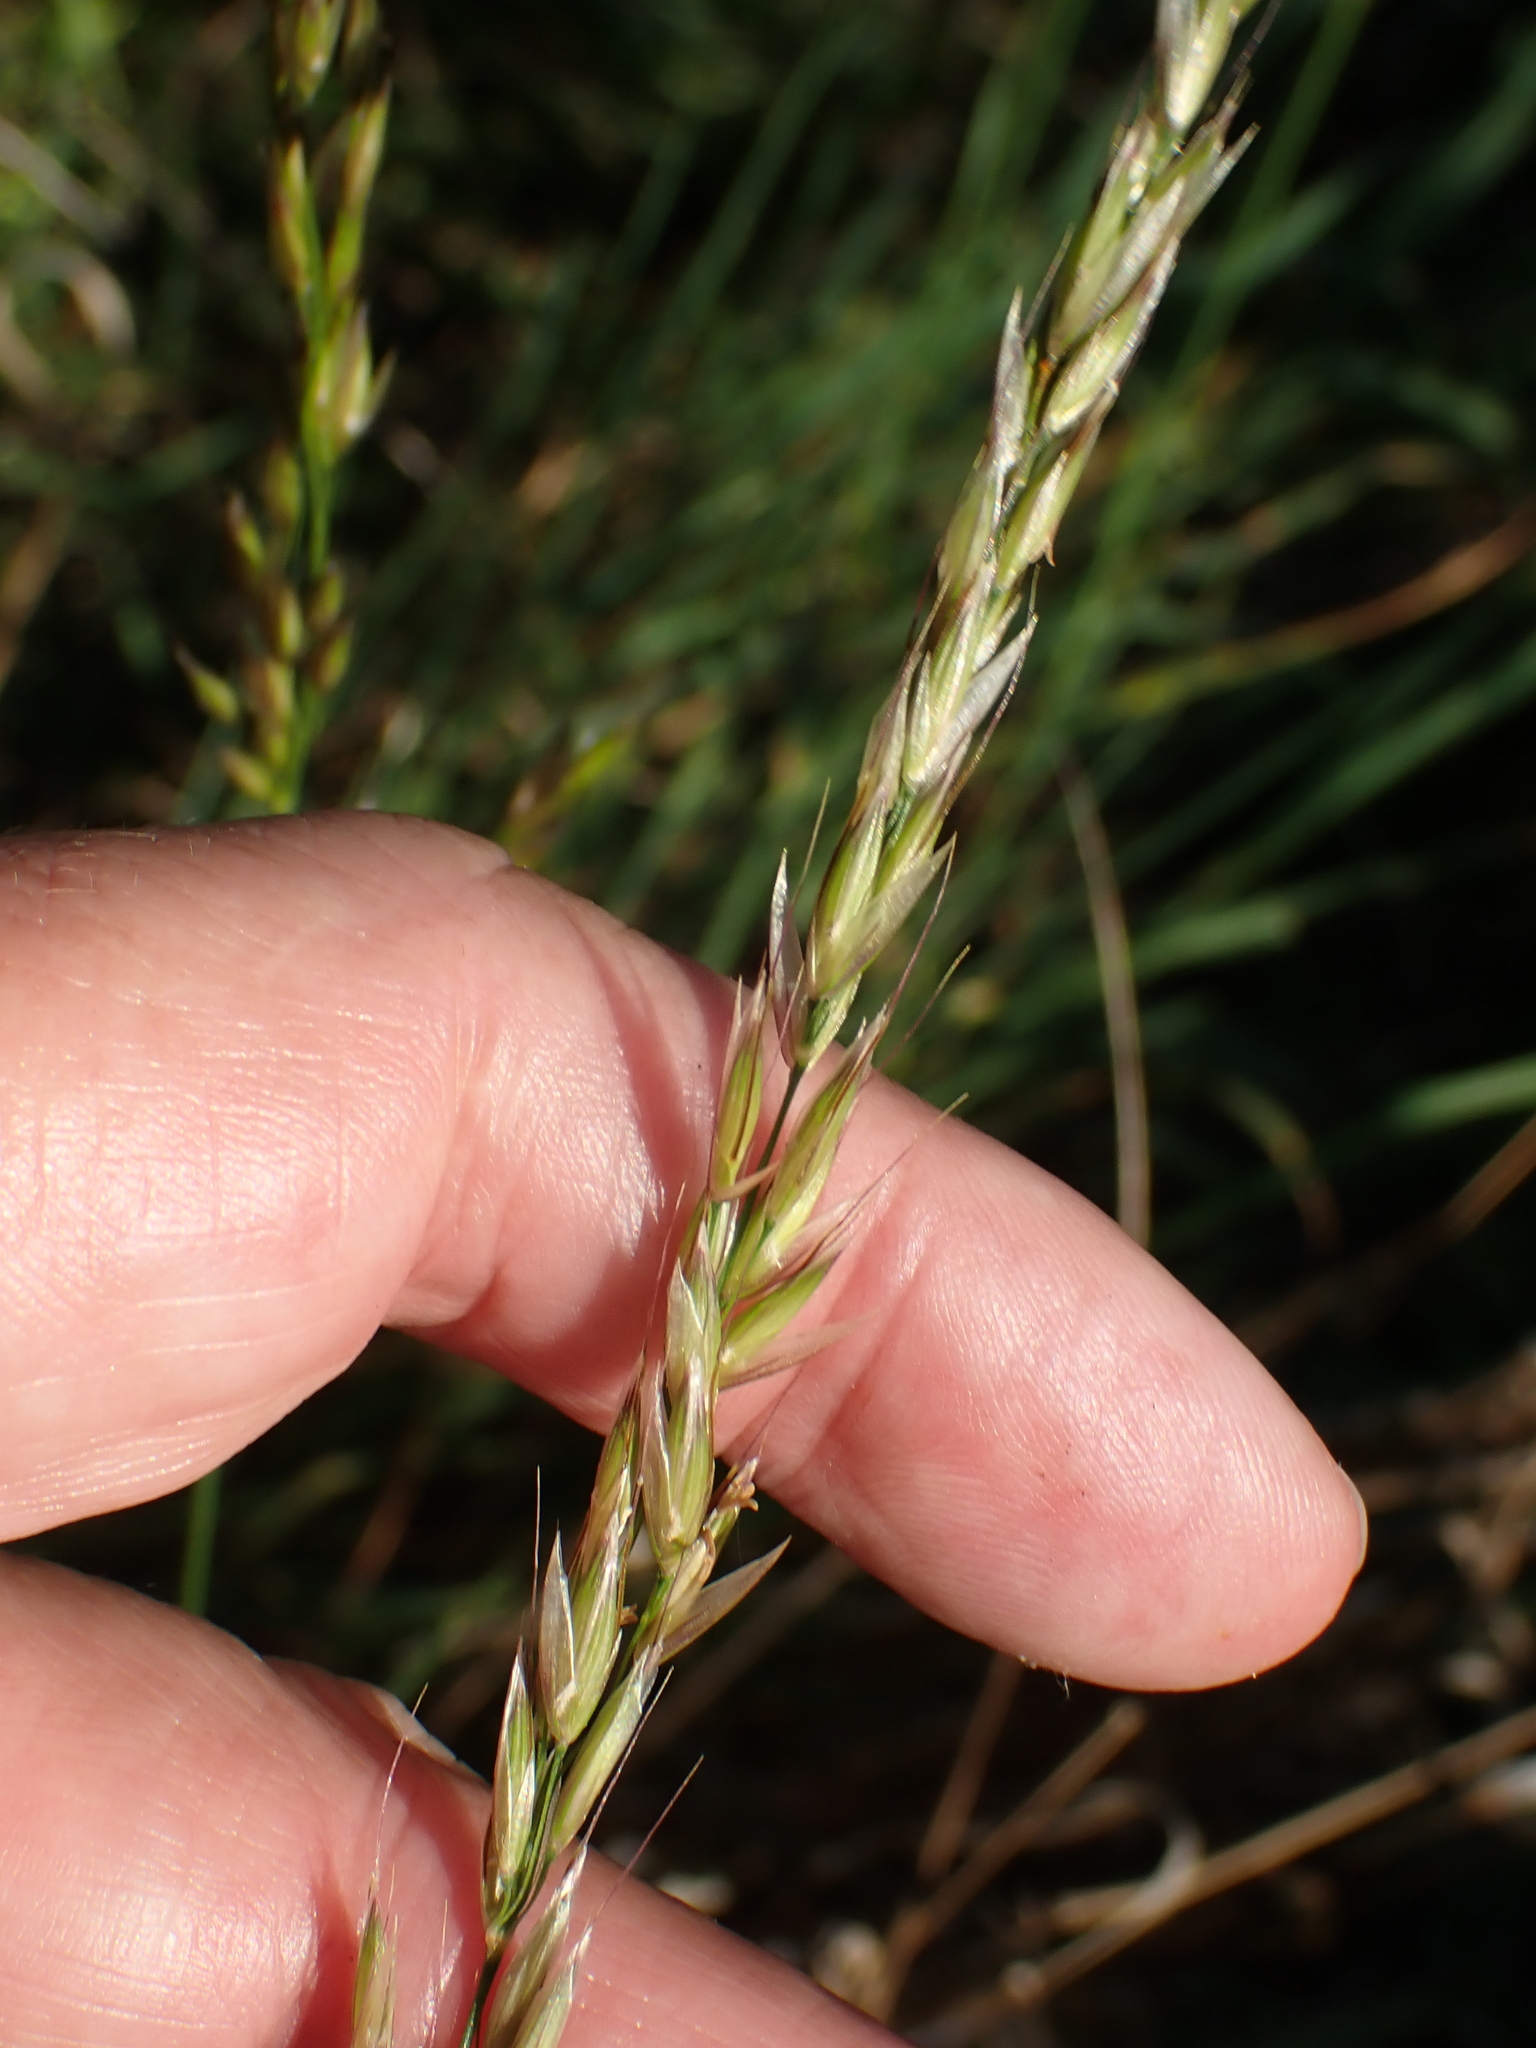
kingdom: Plantae
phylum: Tracheophyta
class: Liliopsida
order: Poales
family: Poaceae
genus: Arrhenatherum
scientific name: Arrhenatherum elatius
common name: Tall oatgrass
